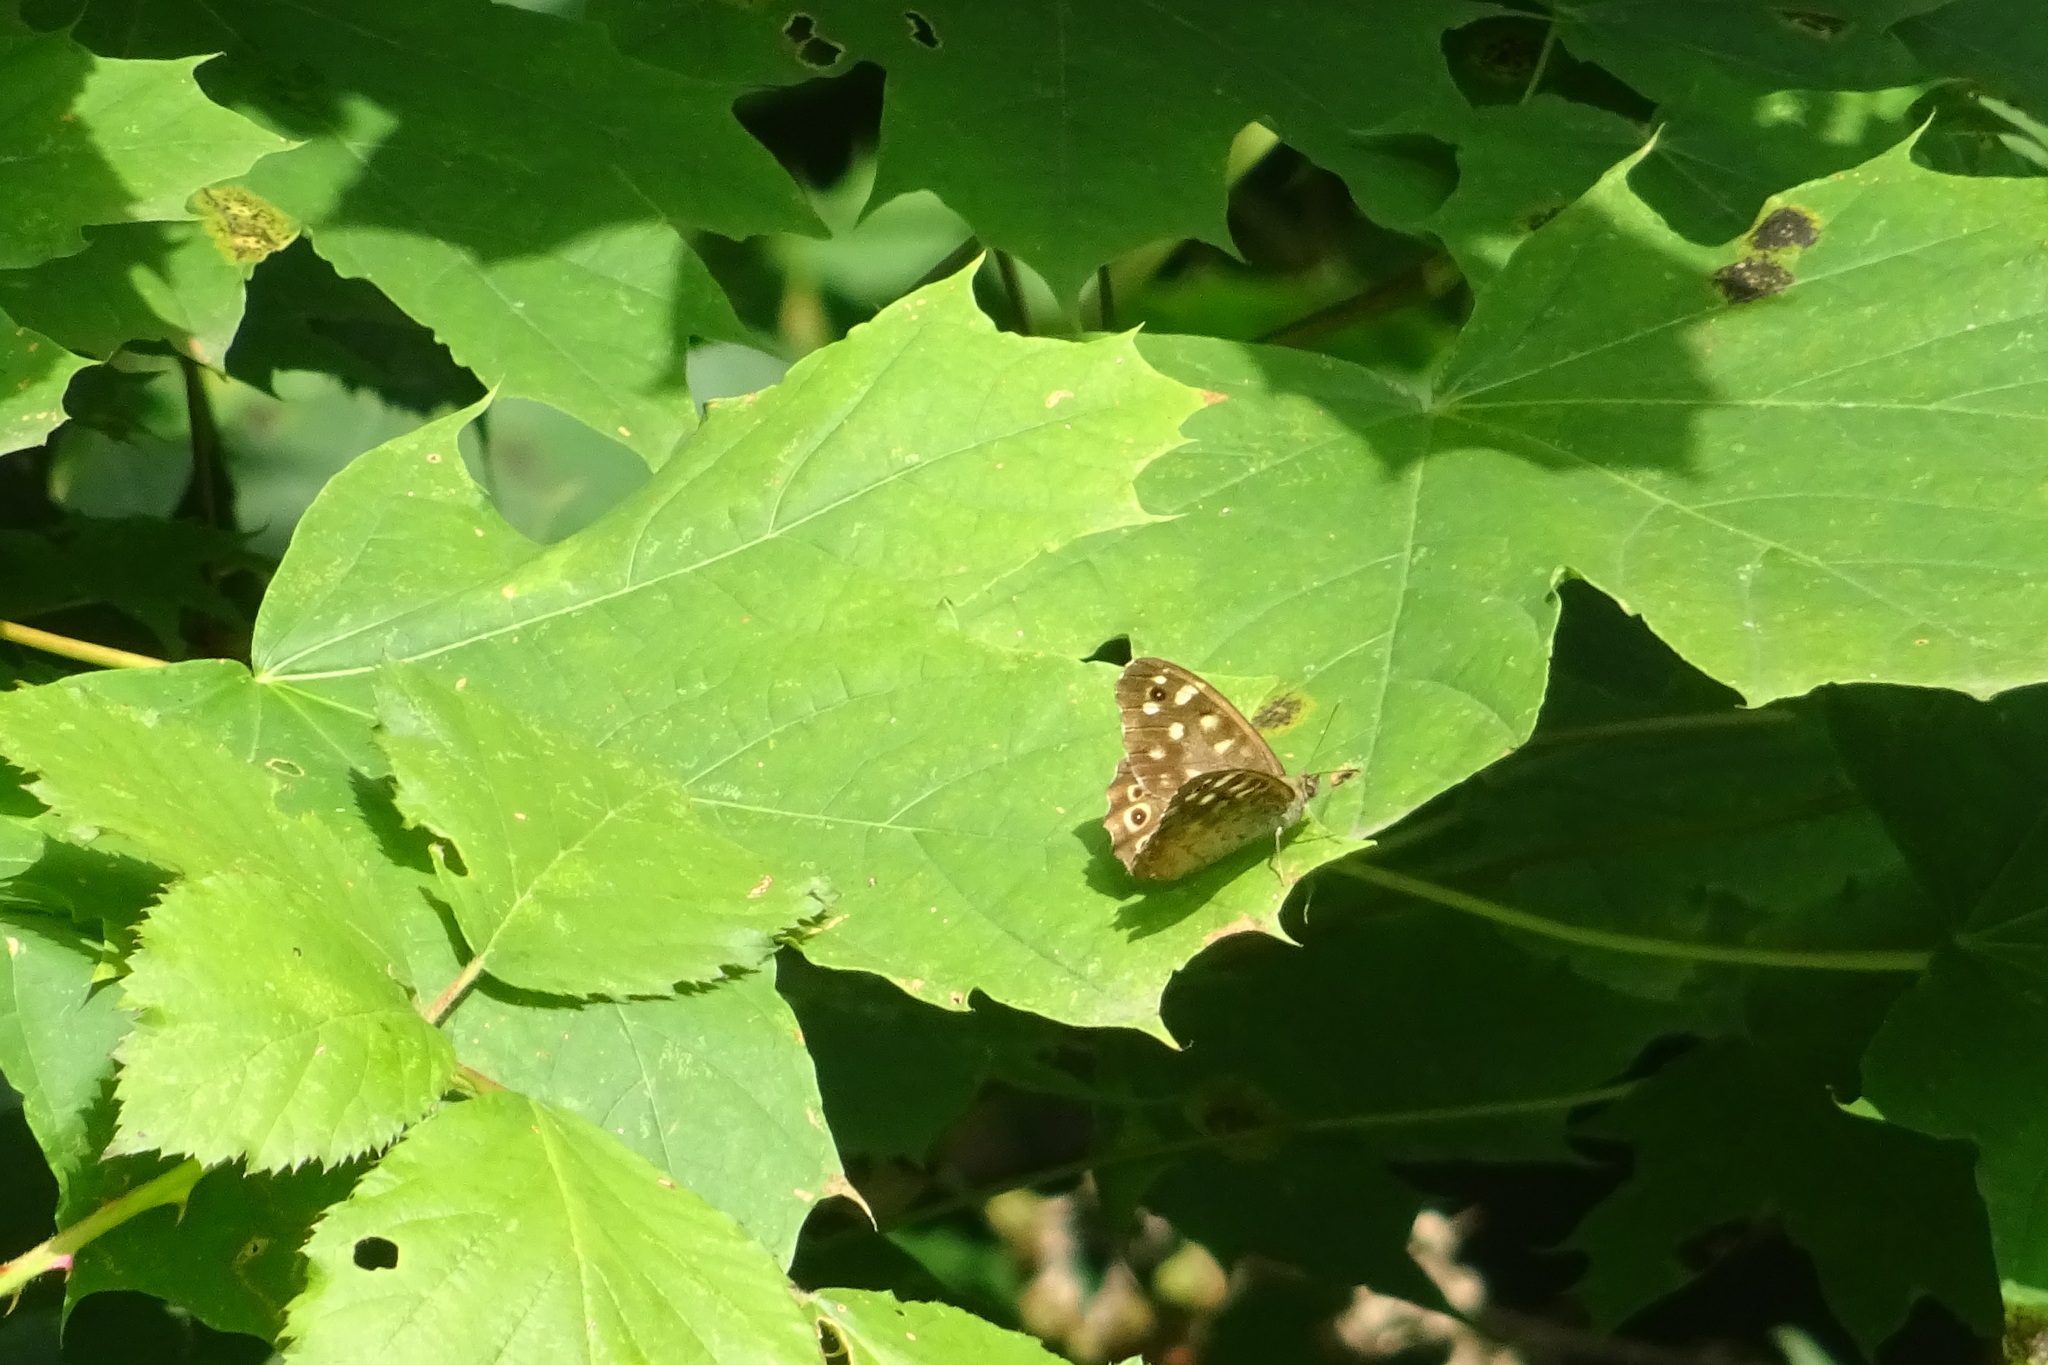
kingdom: Animalia
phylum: Arthropoda
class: Insecta
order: Lepidoptera
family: Nymphalidae
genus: Pararge
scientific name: Pararge aegeria
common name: Speckled wood
